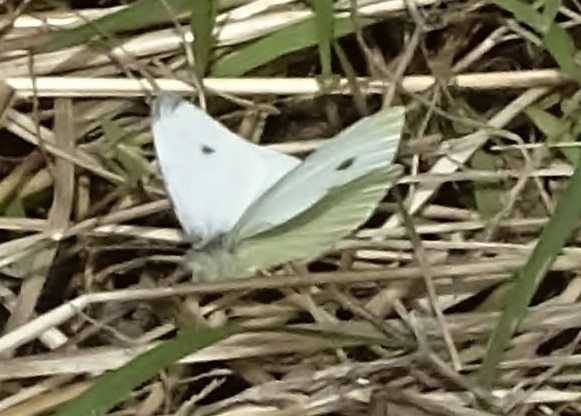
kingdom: Animalia
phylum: Arthropoda
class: Insecta
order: Lepidoptera
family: Pieridae
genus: Pieris
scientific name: Pieris rapae
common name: Small white
